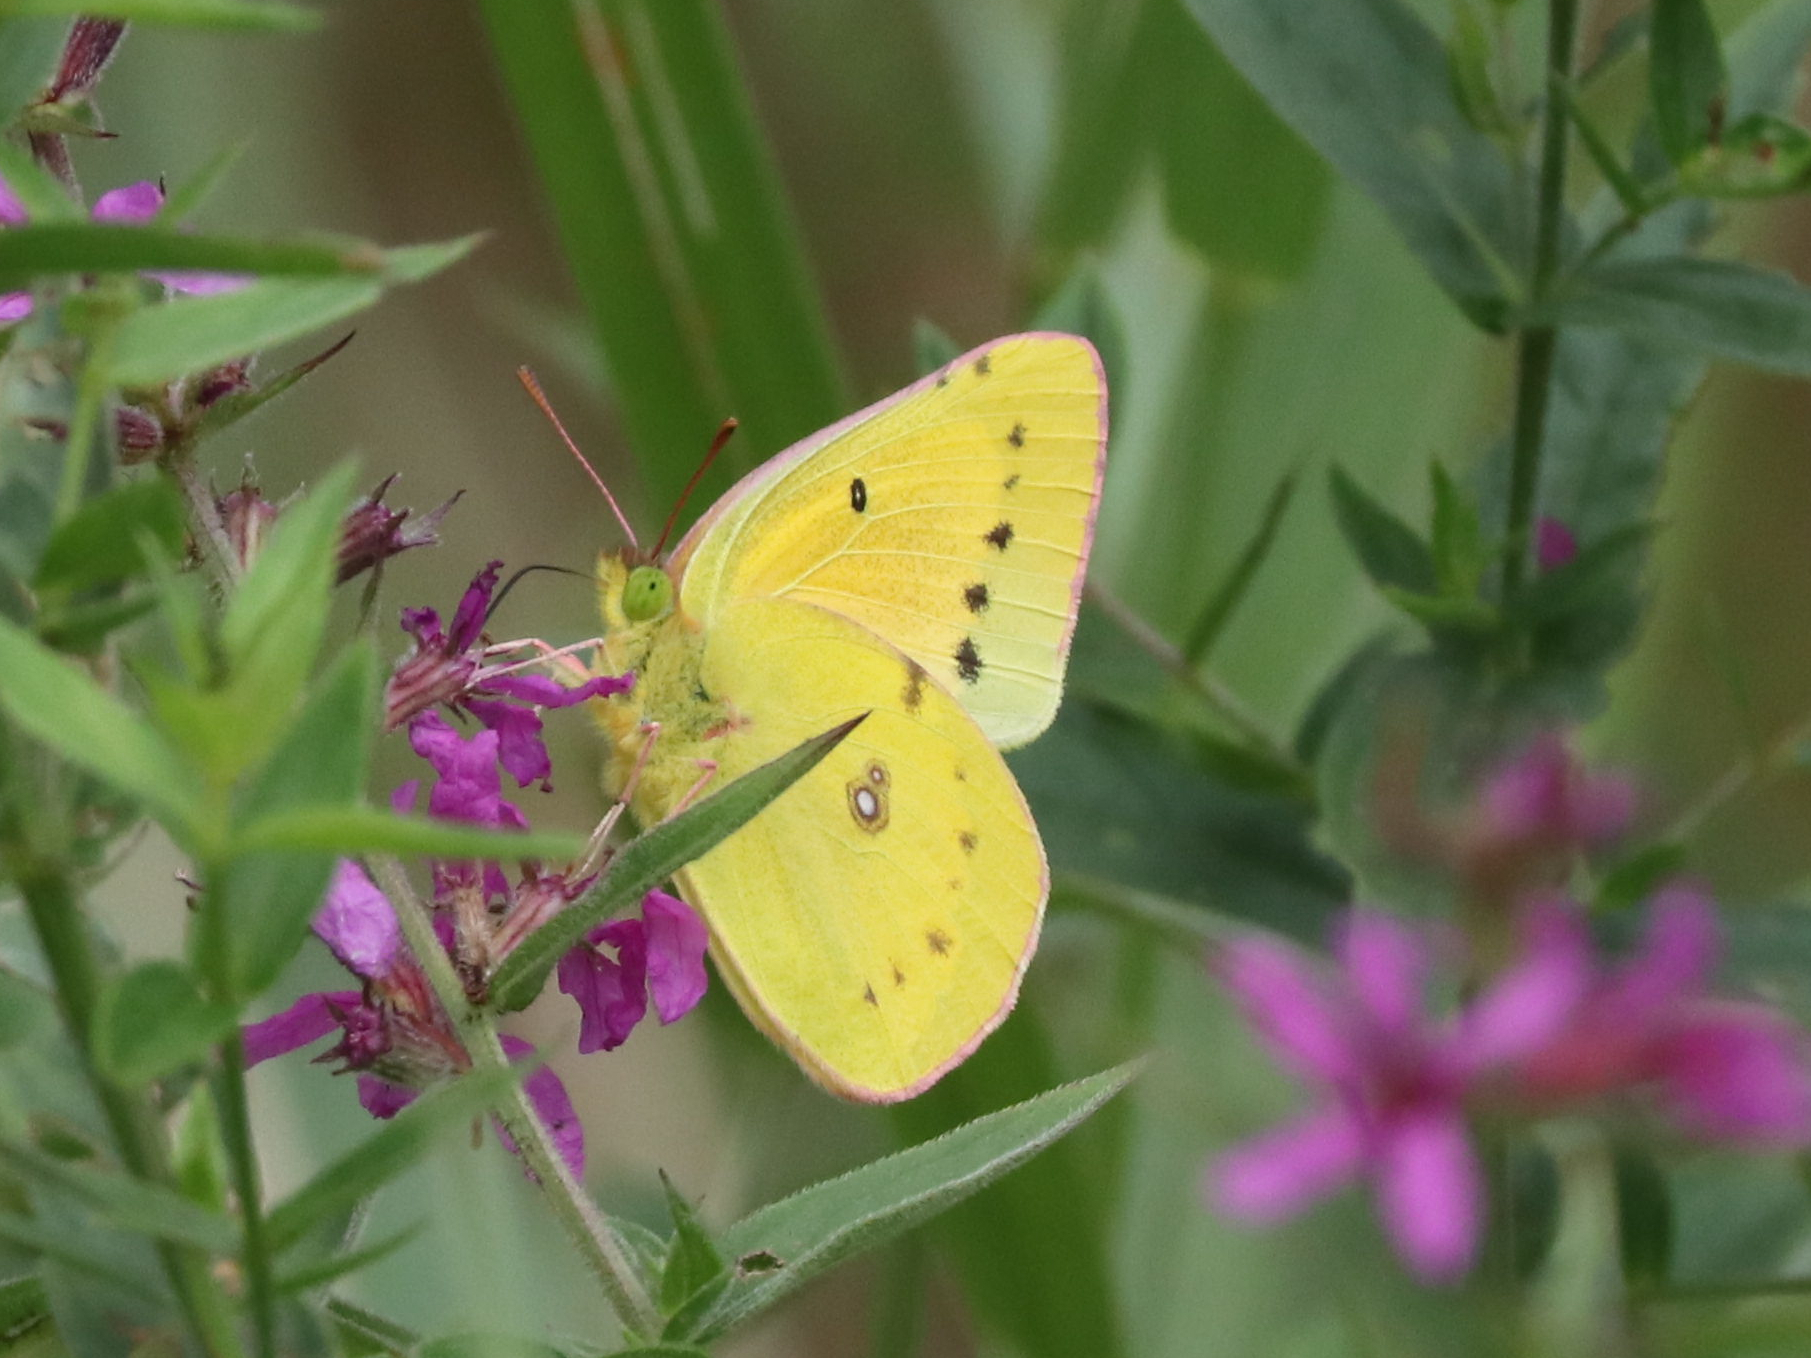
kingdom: Animalia
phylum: Arthropoda
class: Insecta
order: Lepidoptera
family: Pieridae
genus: Colias
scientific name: Colias eurytheme
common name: Alfalfa butterfly
